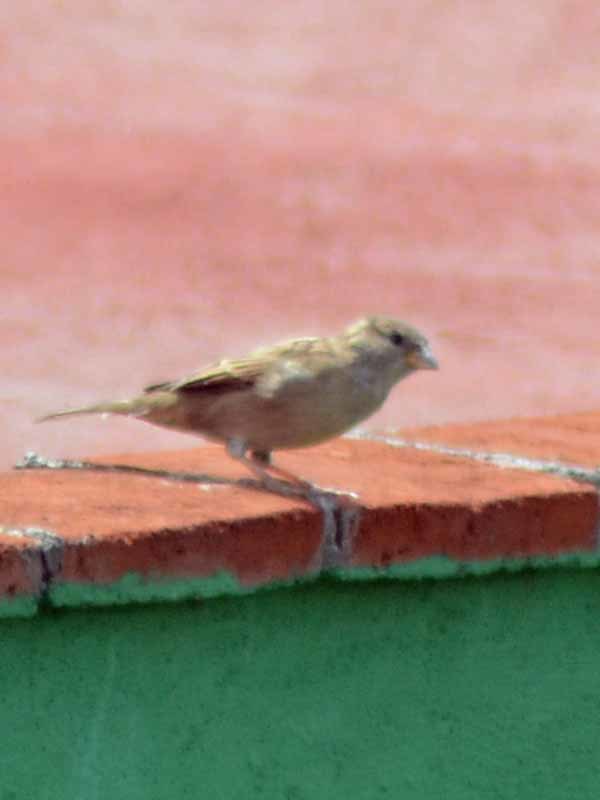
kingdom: Animalia
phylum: Chordata
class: Aves
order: Passeriformes
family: Passeridae
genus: Passer
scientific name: Passer domesticus
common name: House sparrow
